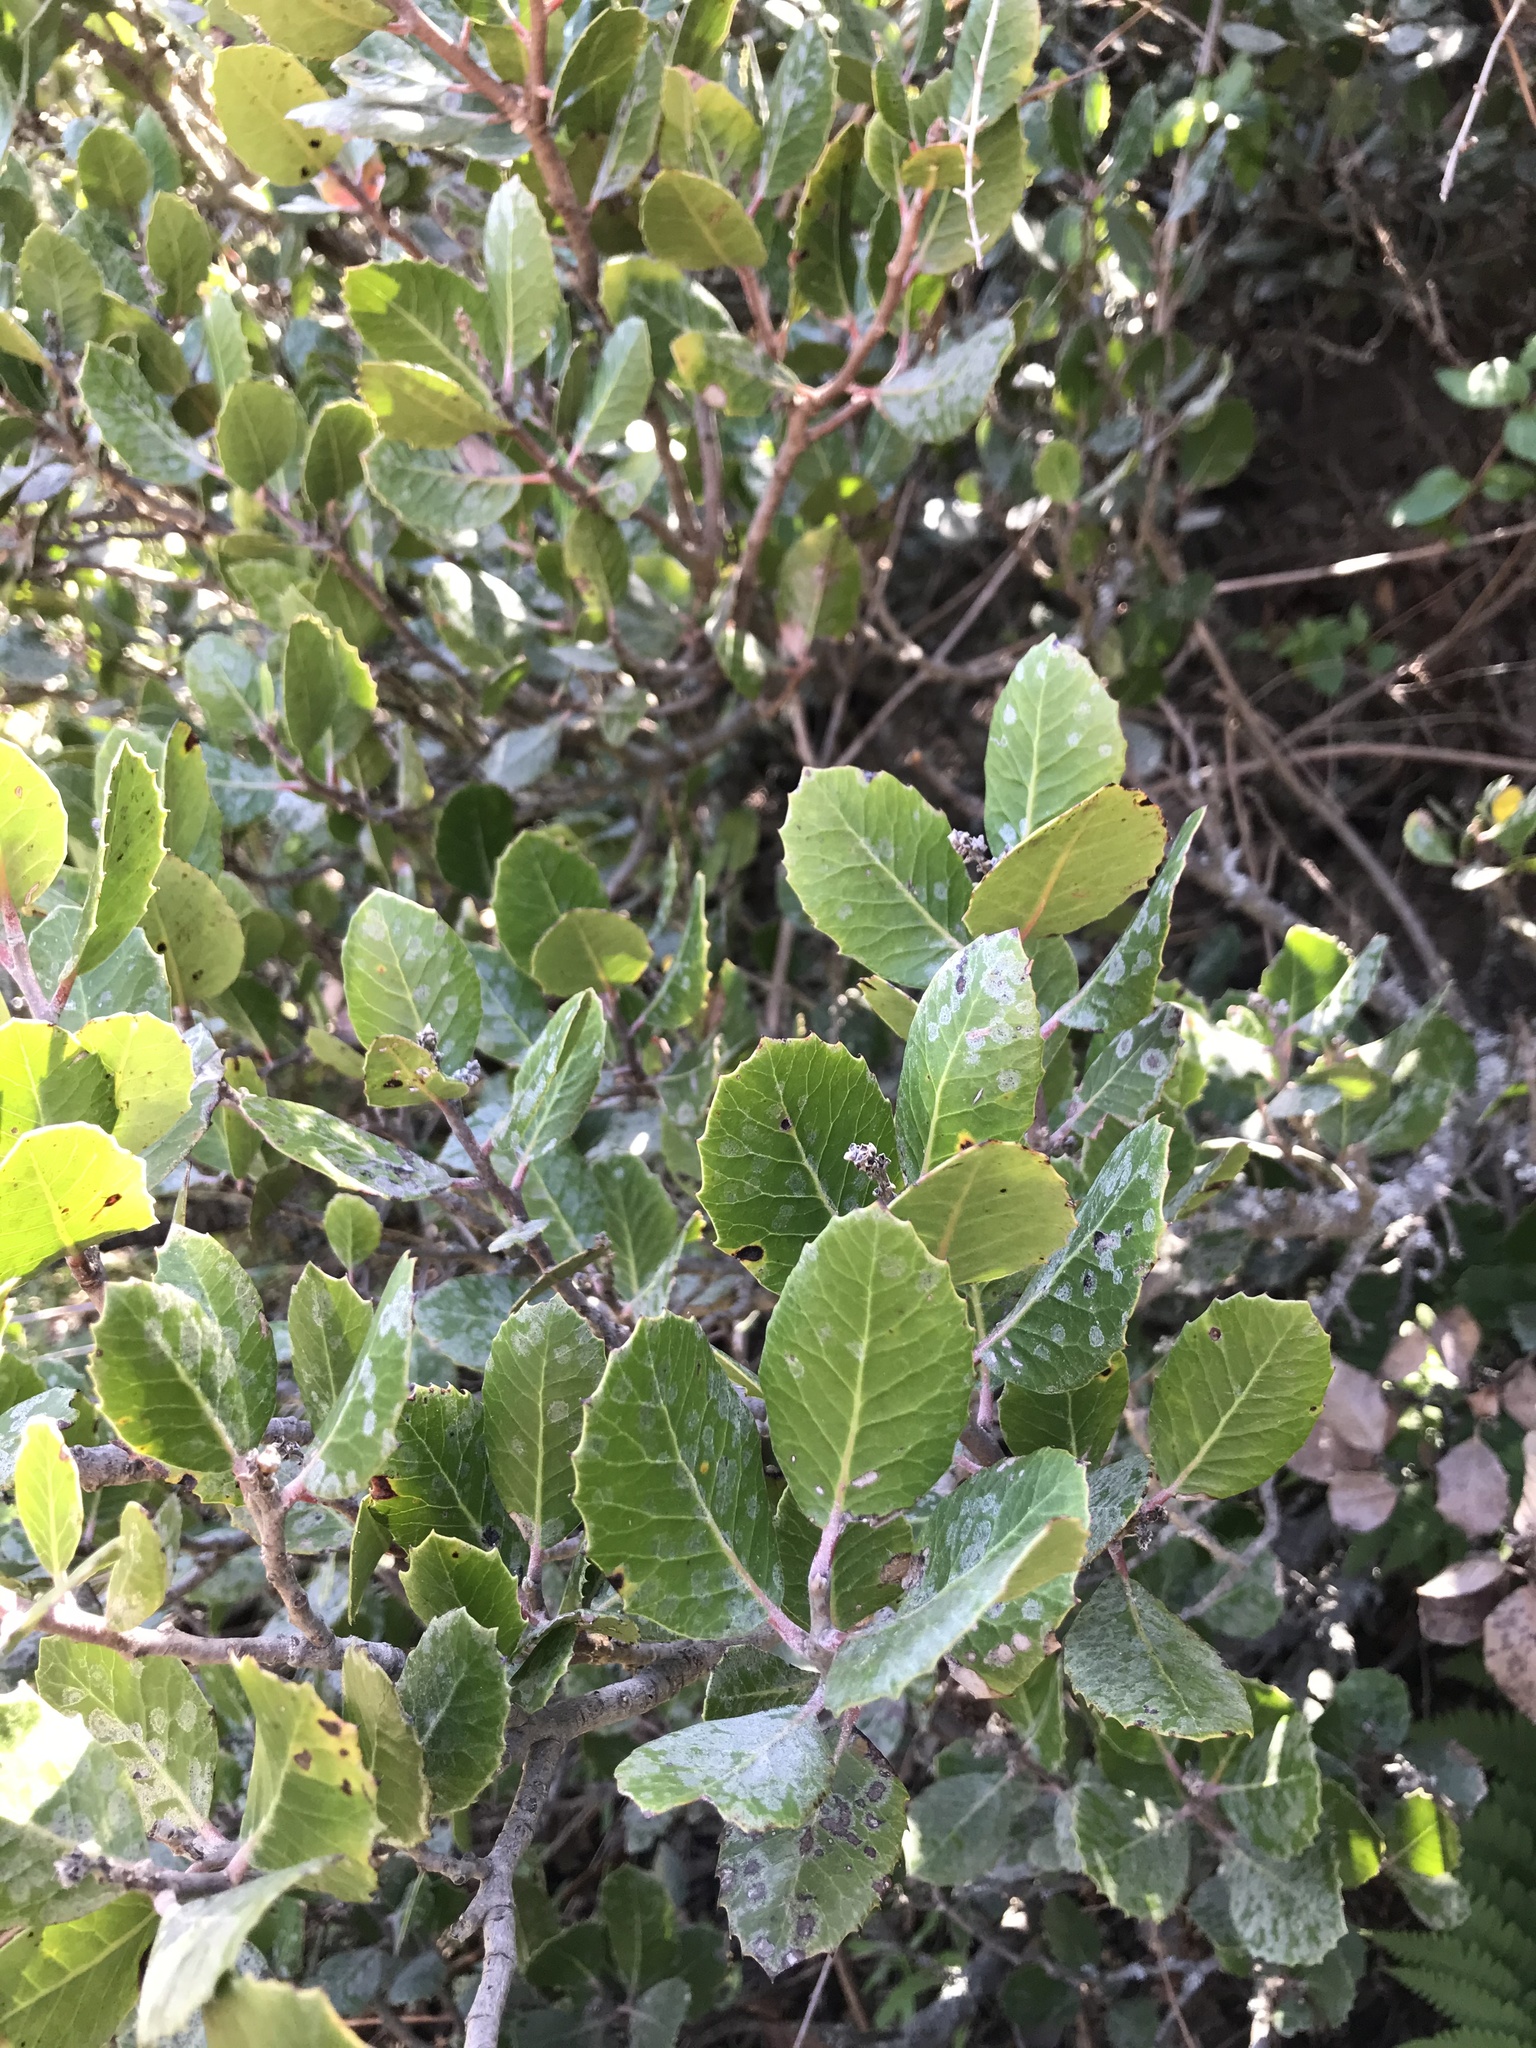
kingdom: Plantae
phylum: Tracheophyta
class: Magnoliopsida
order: Sapindales
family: Anacardiaceae
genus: Rhus
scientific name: Rhus integrifolia
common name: Lemonade sumac
